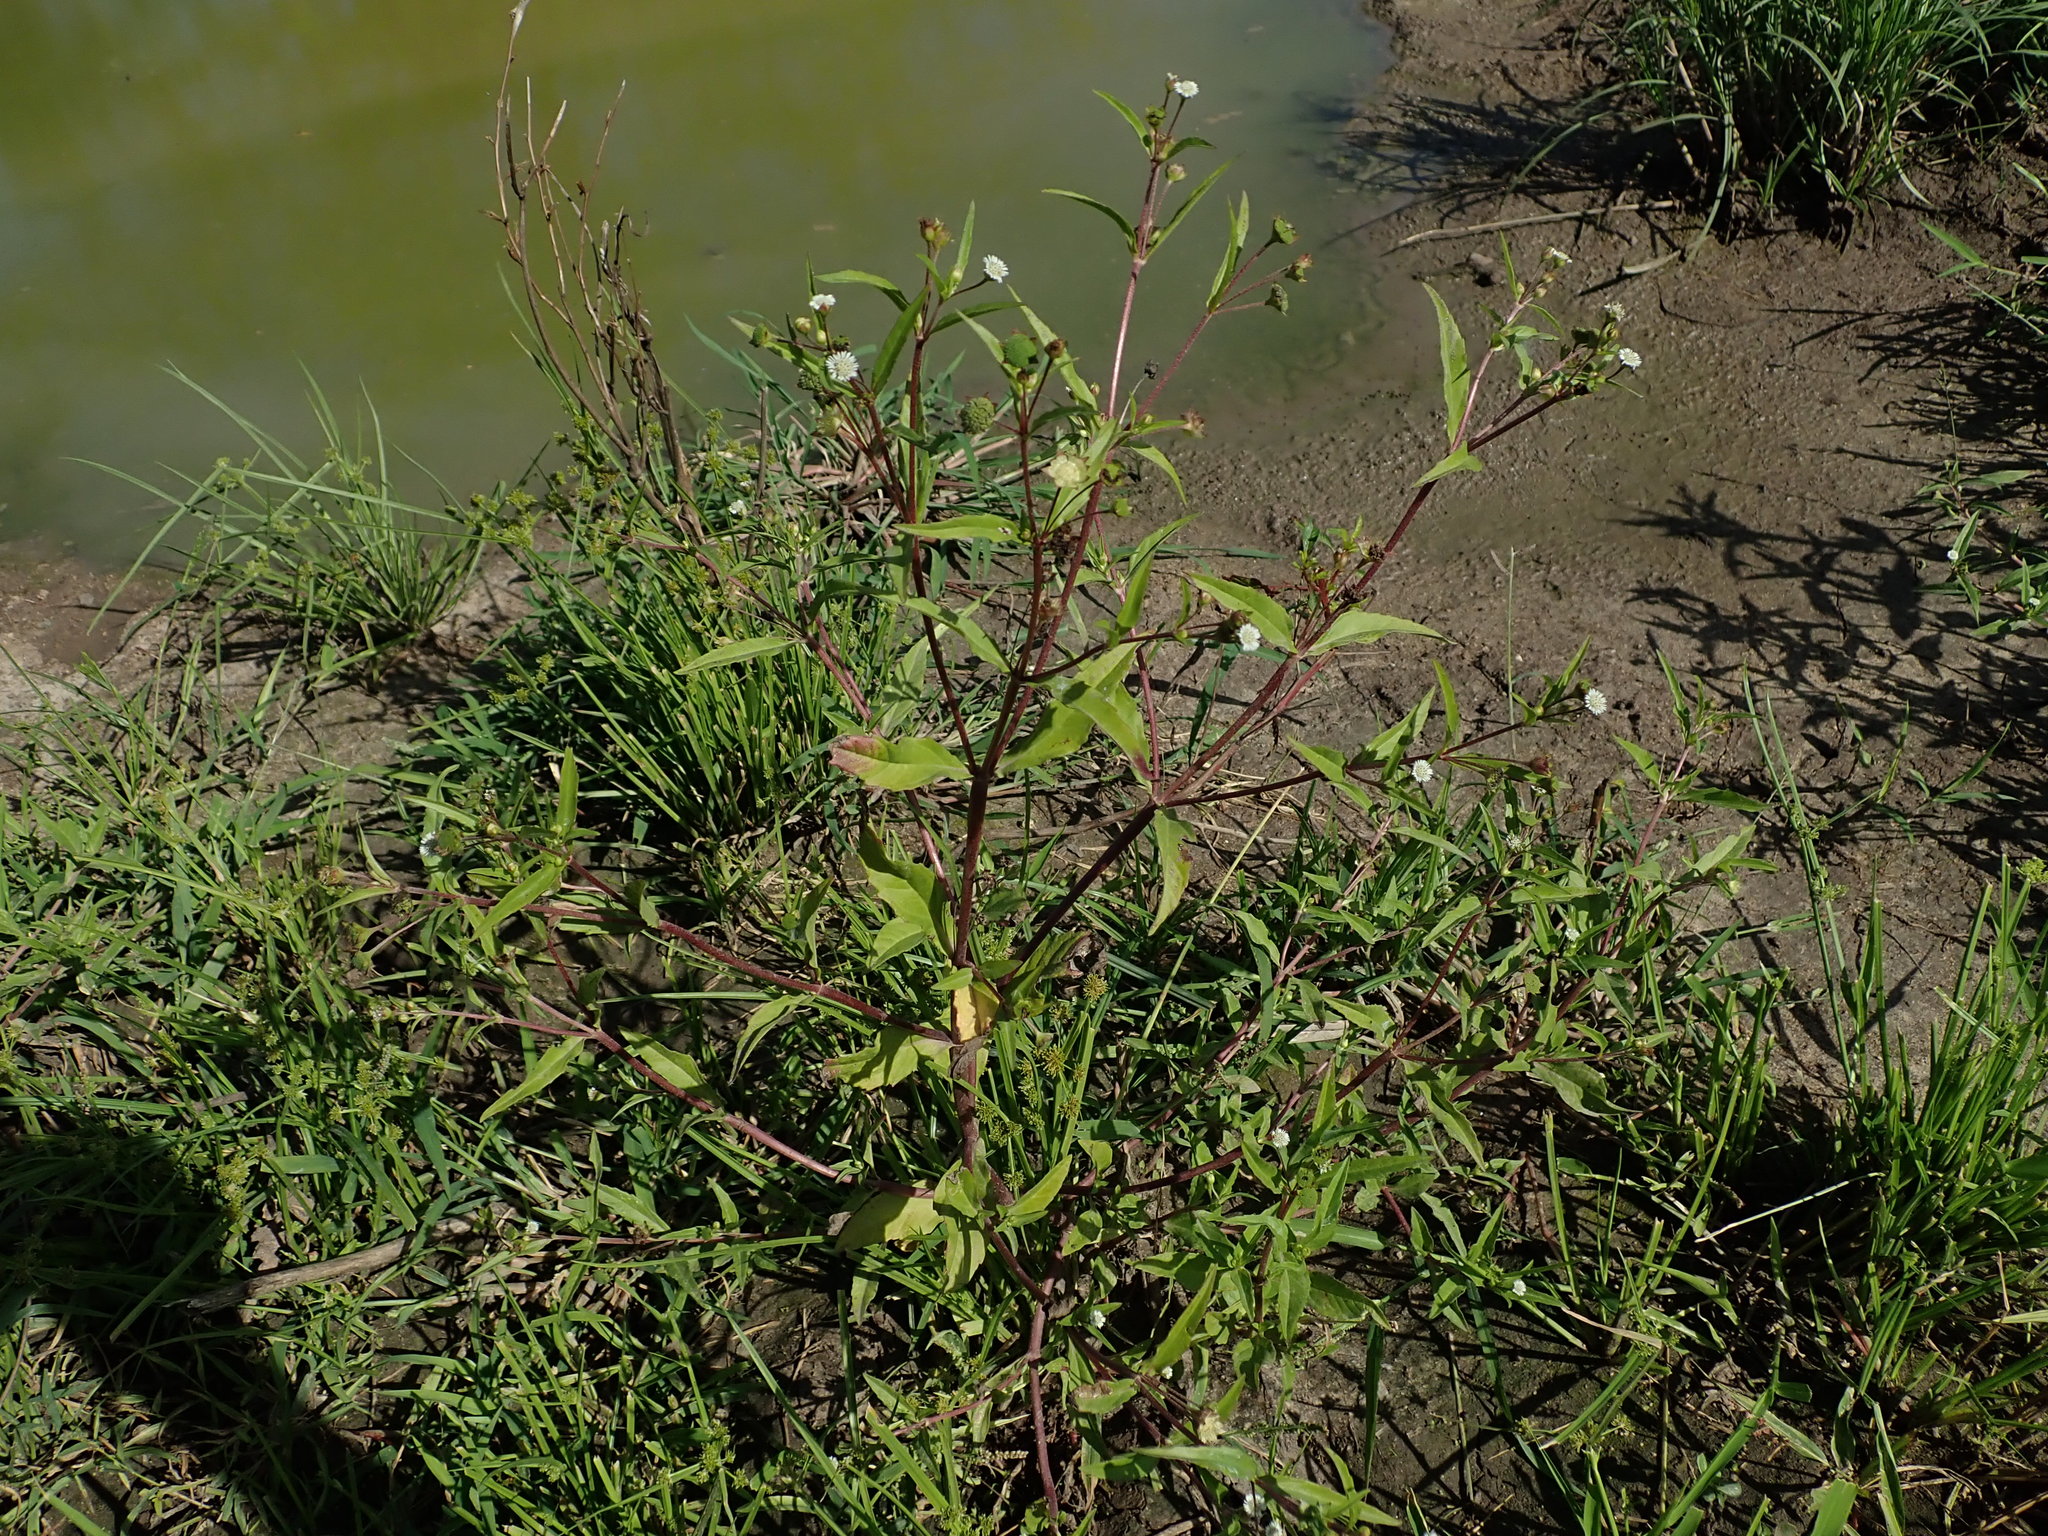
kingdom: Plantae
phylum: Tracheophyta
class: Magnoliopsida
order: Asterales
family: Asteraceae
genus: Eclipta
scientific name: Eclipta prostrata
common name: False daisy
